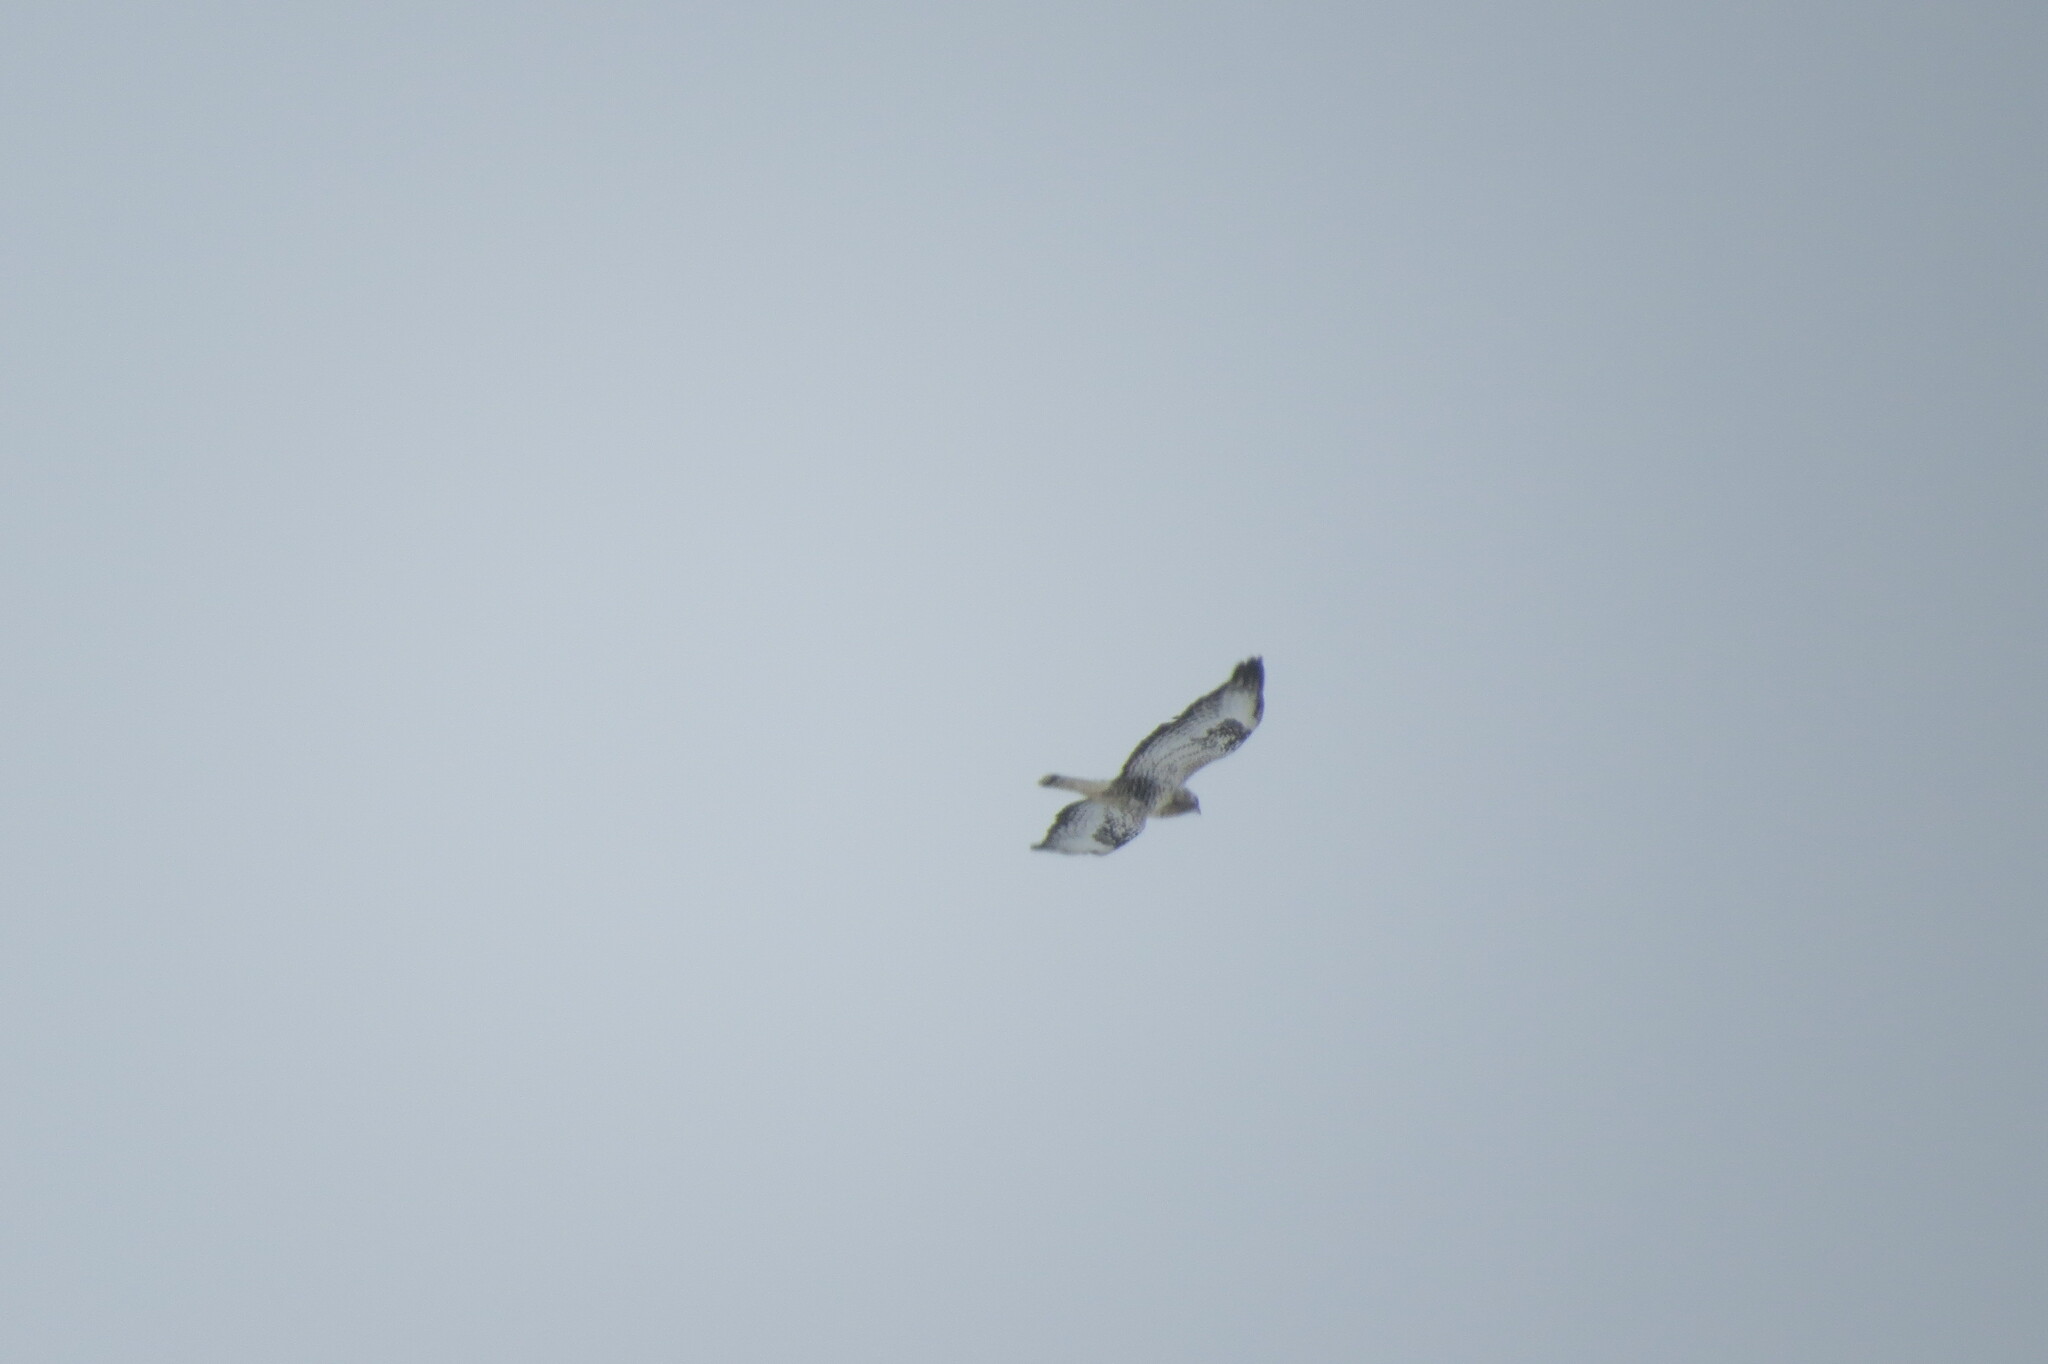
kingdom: Animalia
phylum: Chordata
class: Aves
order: Accipitriformes
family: Accipitridae
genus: Buteo
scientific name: Buteo lagopus
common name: Rough-legged buzzard
